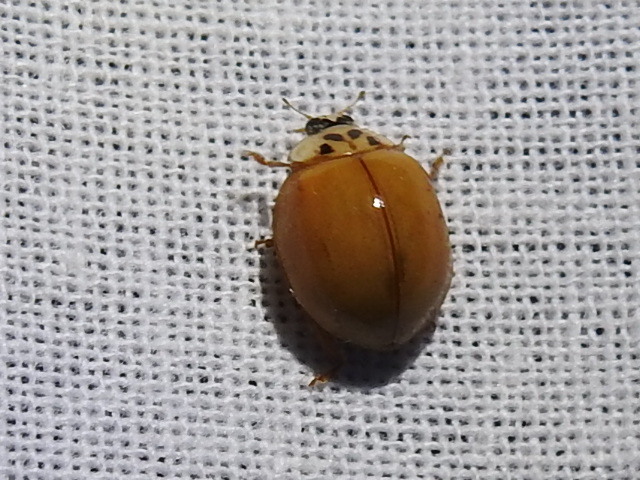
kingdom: Animalia
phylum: Arthropoda
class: Insecta
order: Coleoptera
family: Coccinellidae
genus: Harmonia
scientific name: Harmonia axyridis
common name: Harlequin ladybird
